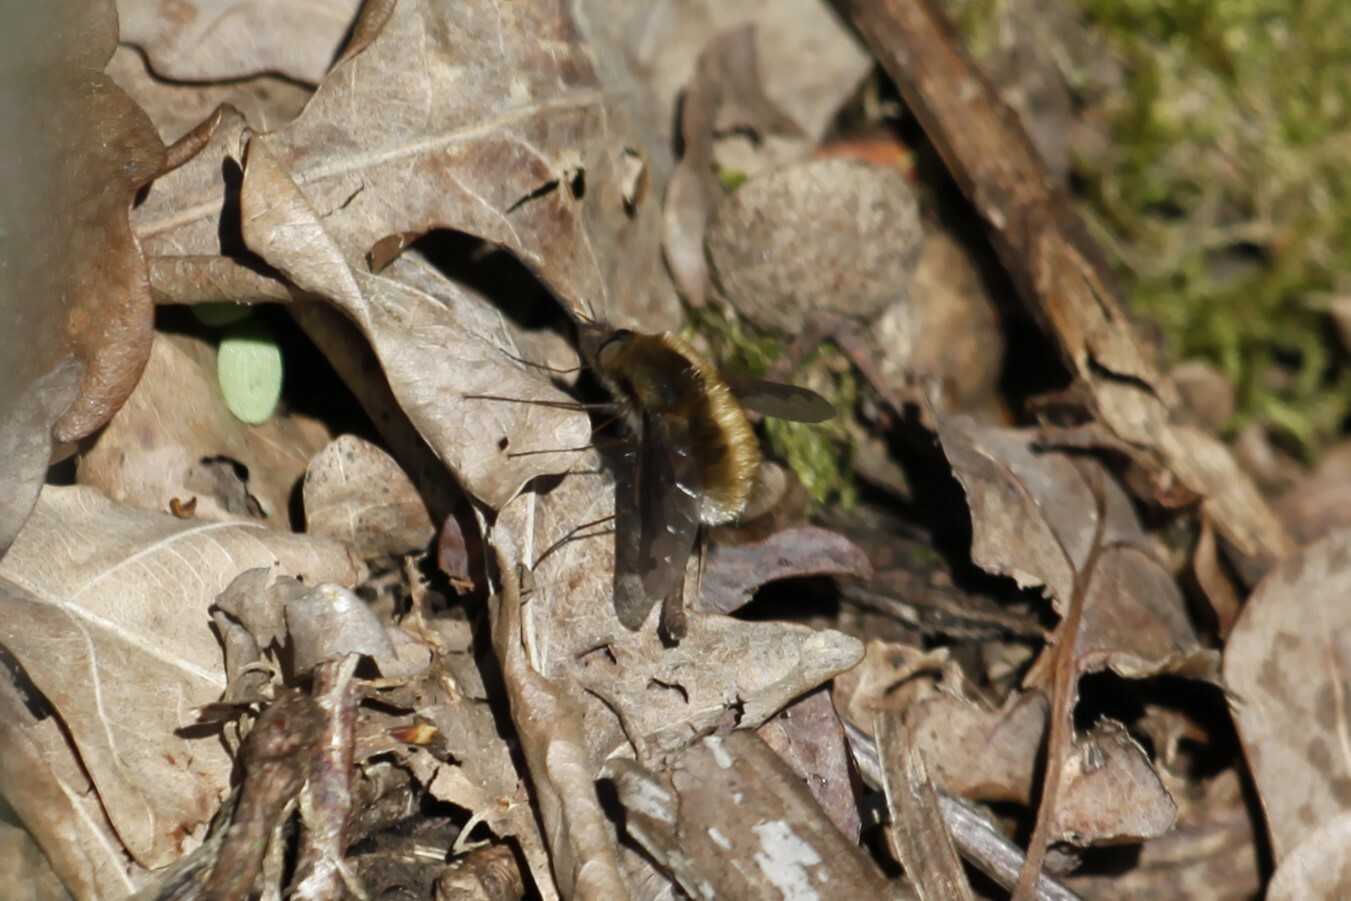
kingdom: Animalia
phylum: Arthropoda
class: Insecta
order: Diptera
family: Bombyliidae
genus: Bombylius
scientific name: Bombylius major
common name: Bee fly
